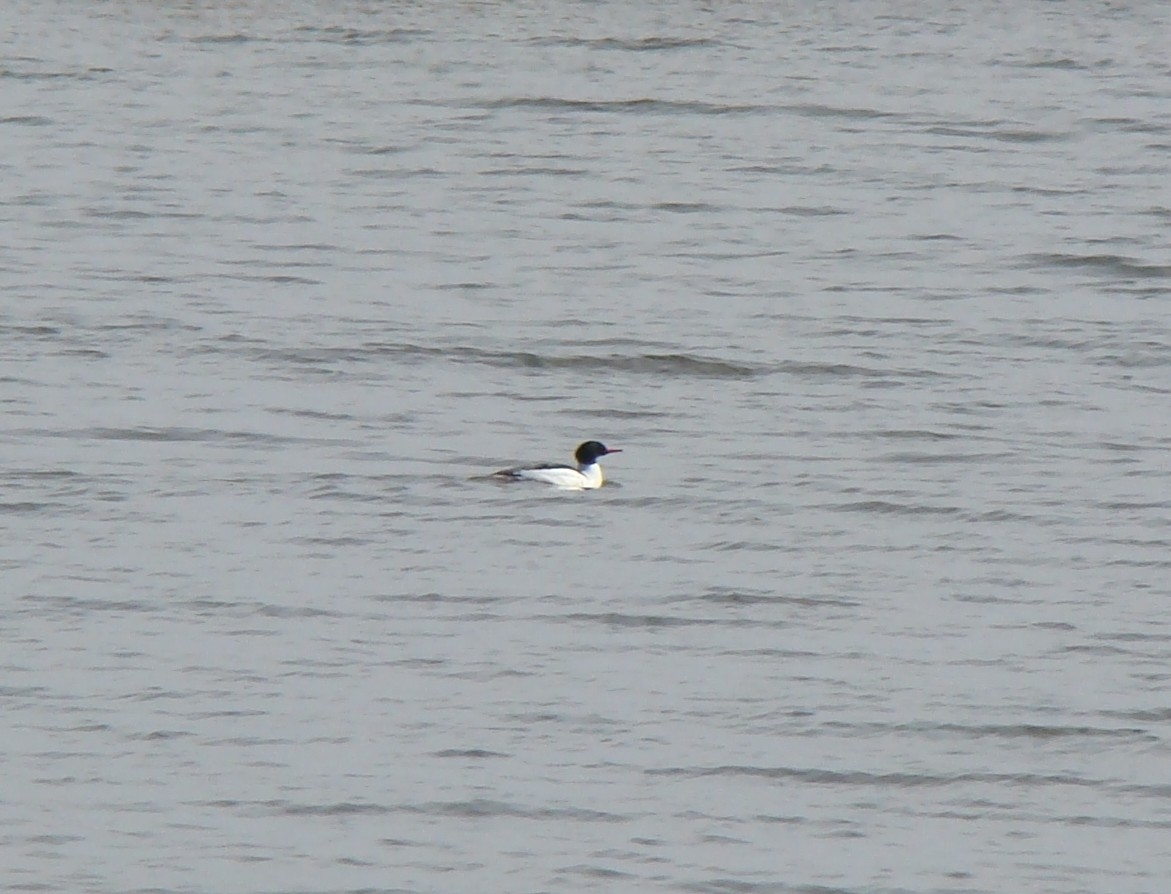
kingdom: Animalia
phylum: Chordata
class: Aves
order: Anseriformes
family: Anatidae
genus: Mergus
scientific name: Mergus merganser
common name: Common merganser
